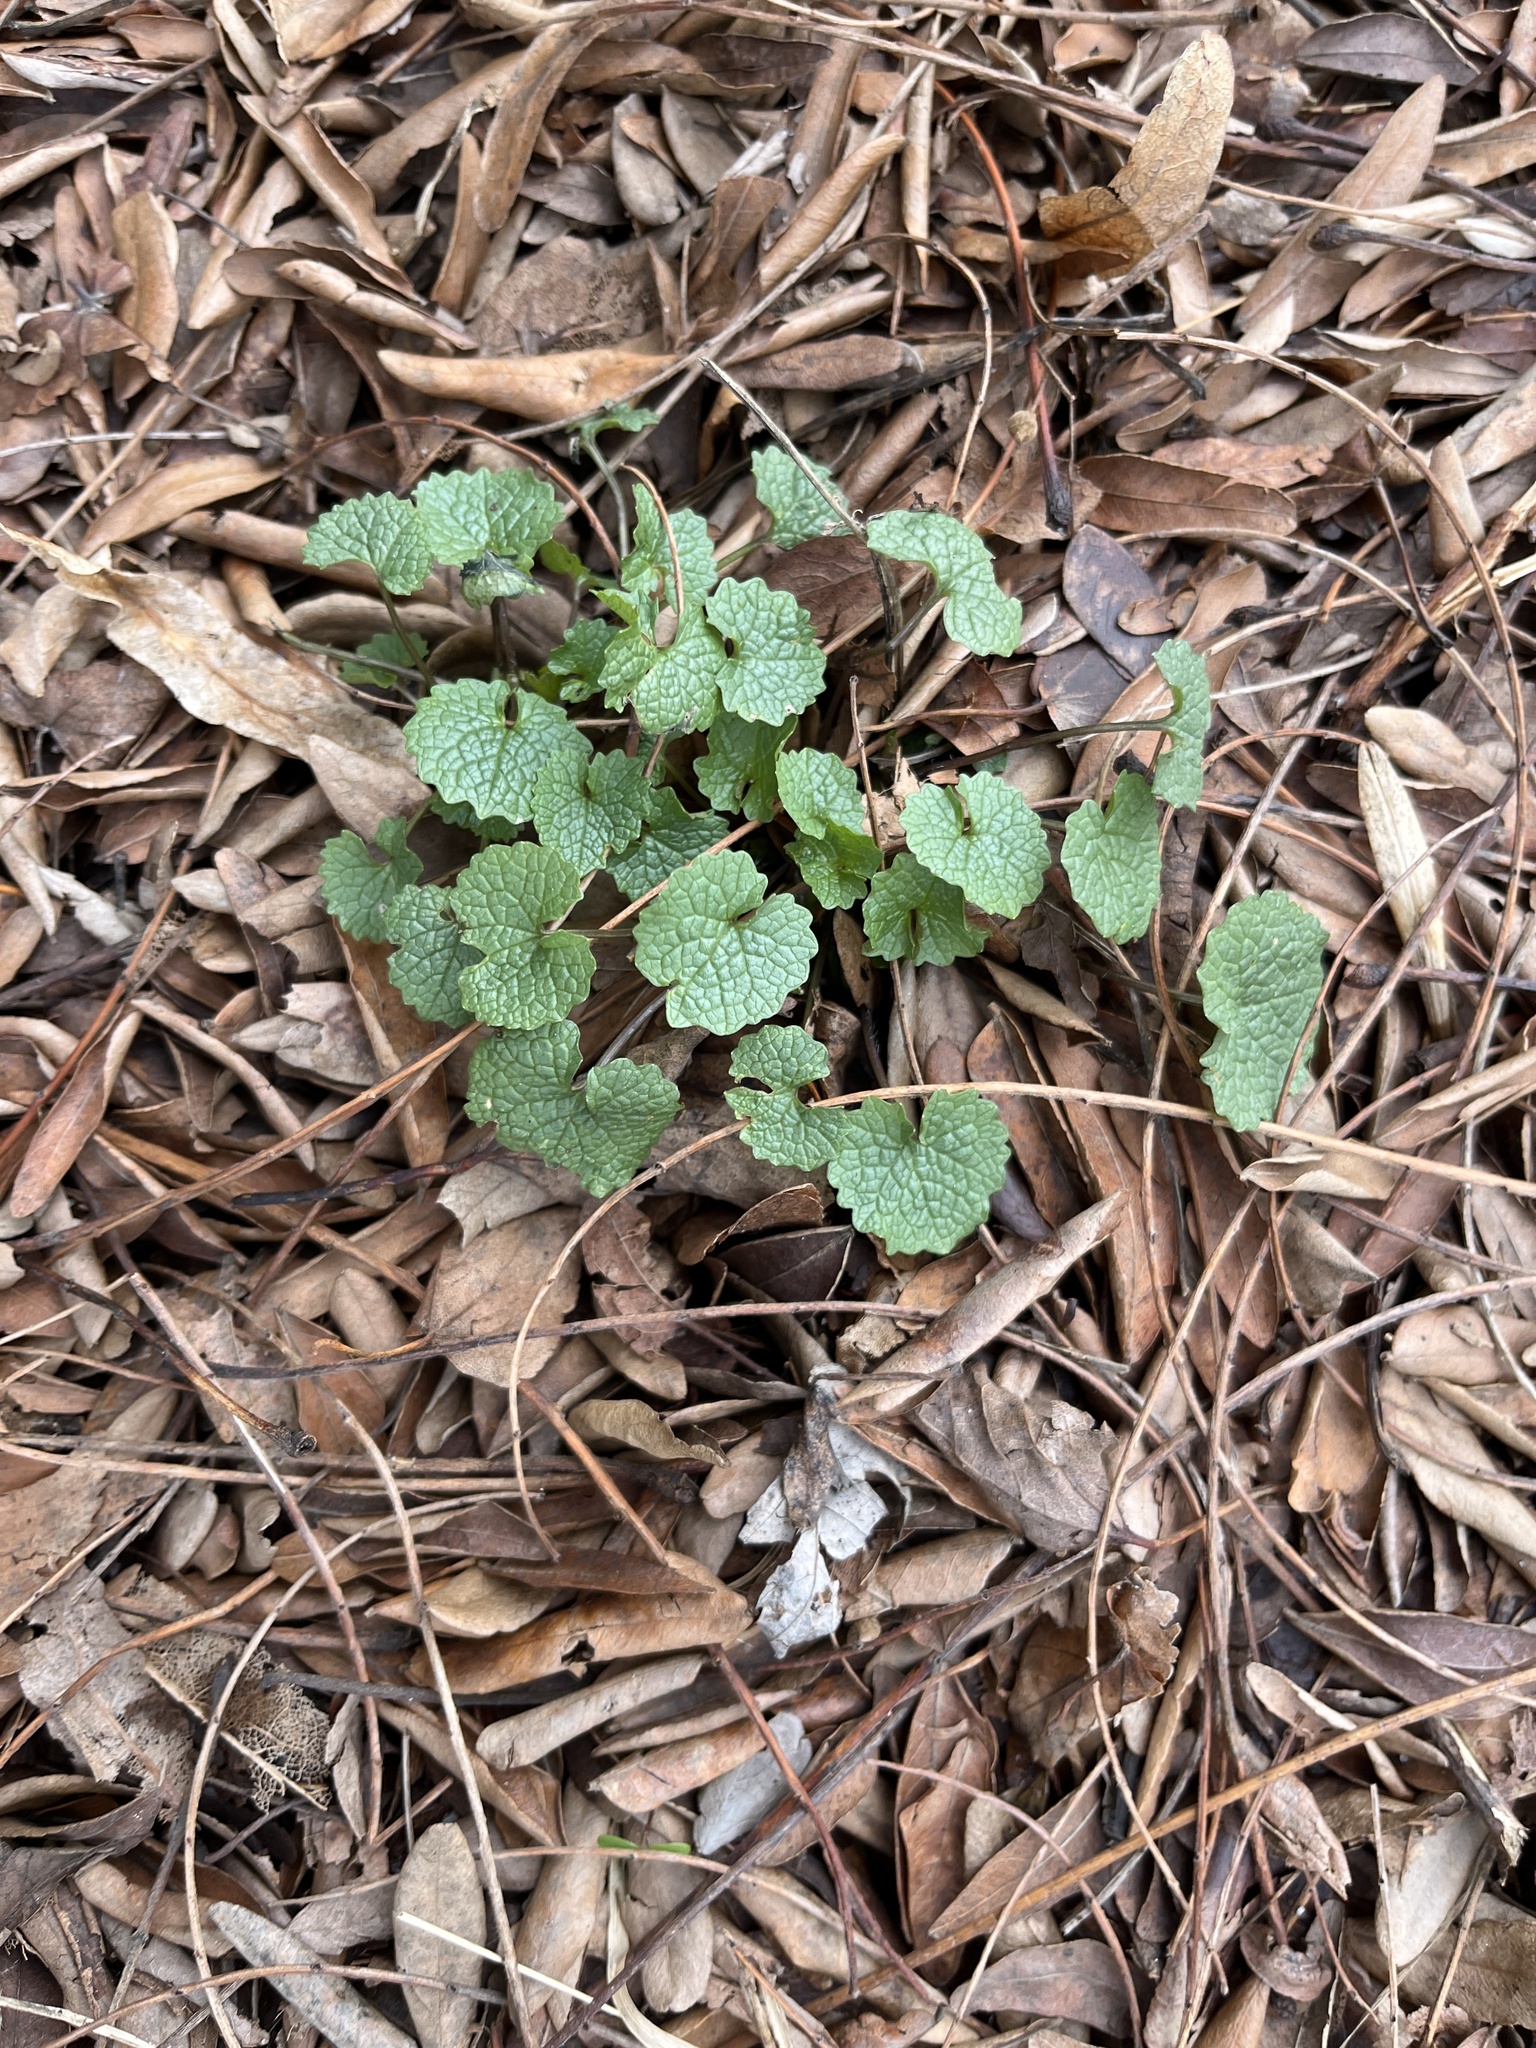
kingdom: Plantae
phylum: Tracheophyta
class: Magnoliopsida
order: Brassicales
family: Brassicaceae
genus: Alliaria
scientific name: Alliaria petiolata
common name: Garlic mustard
